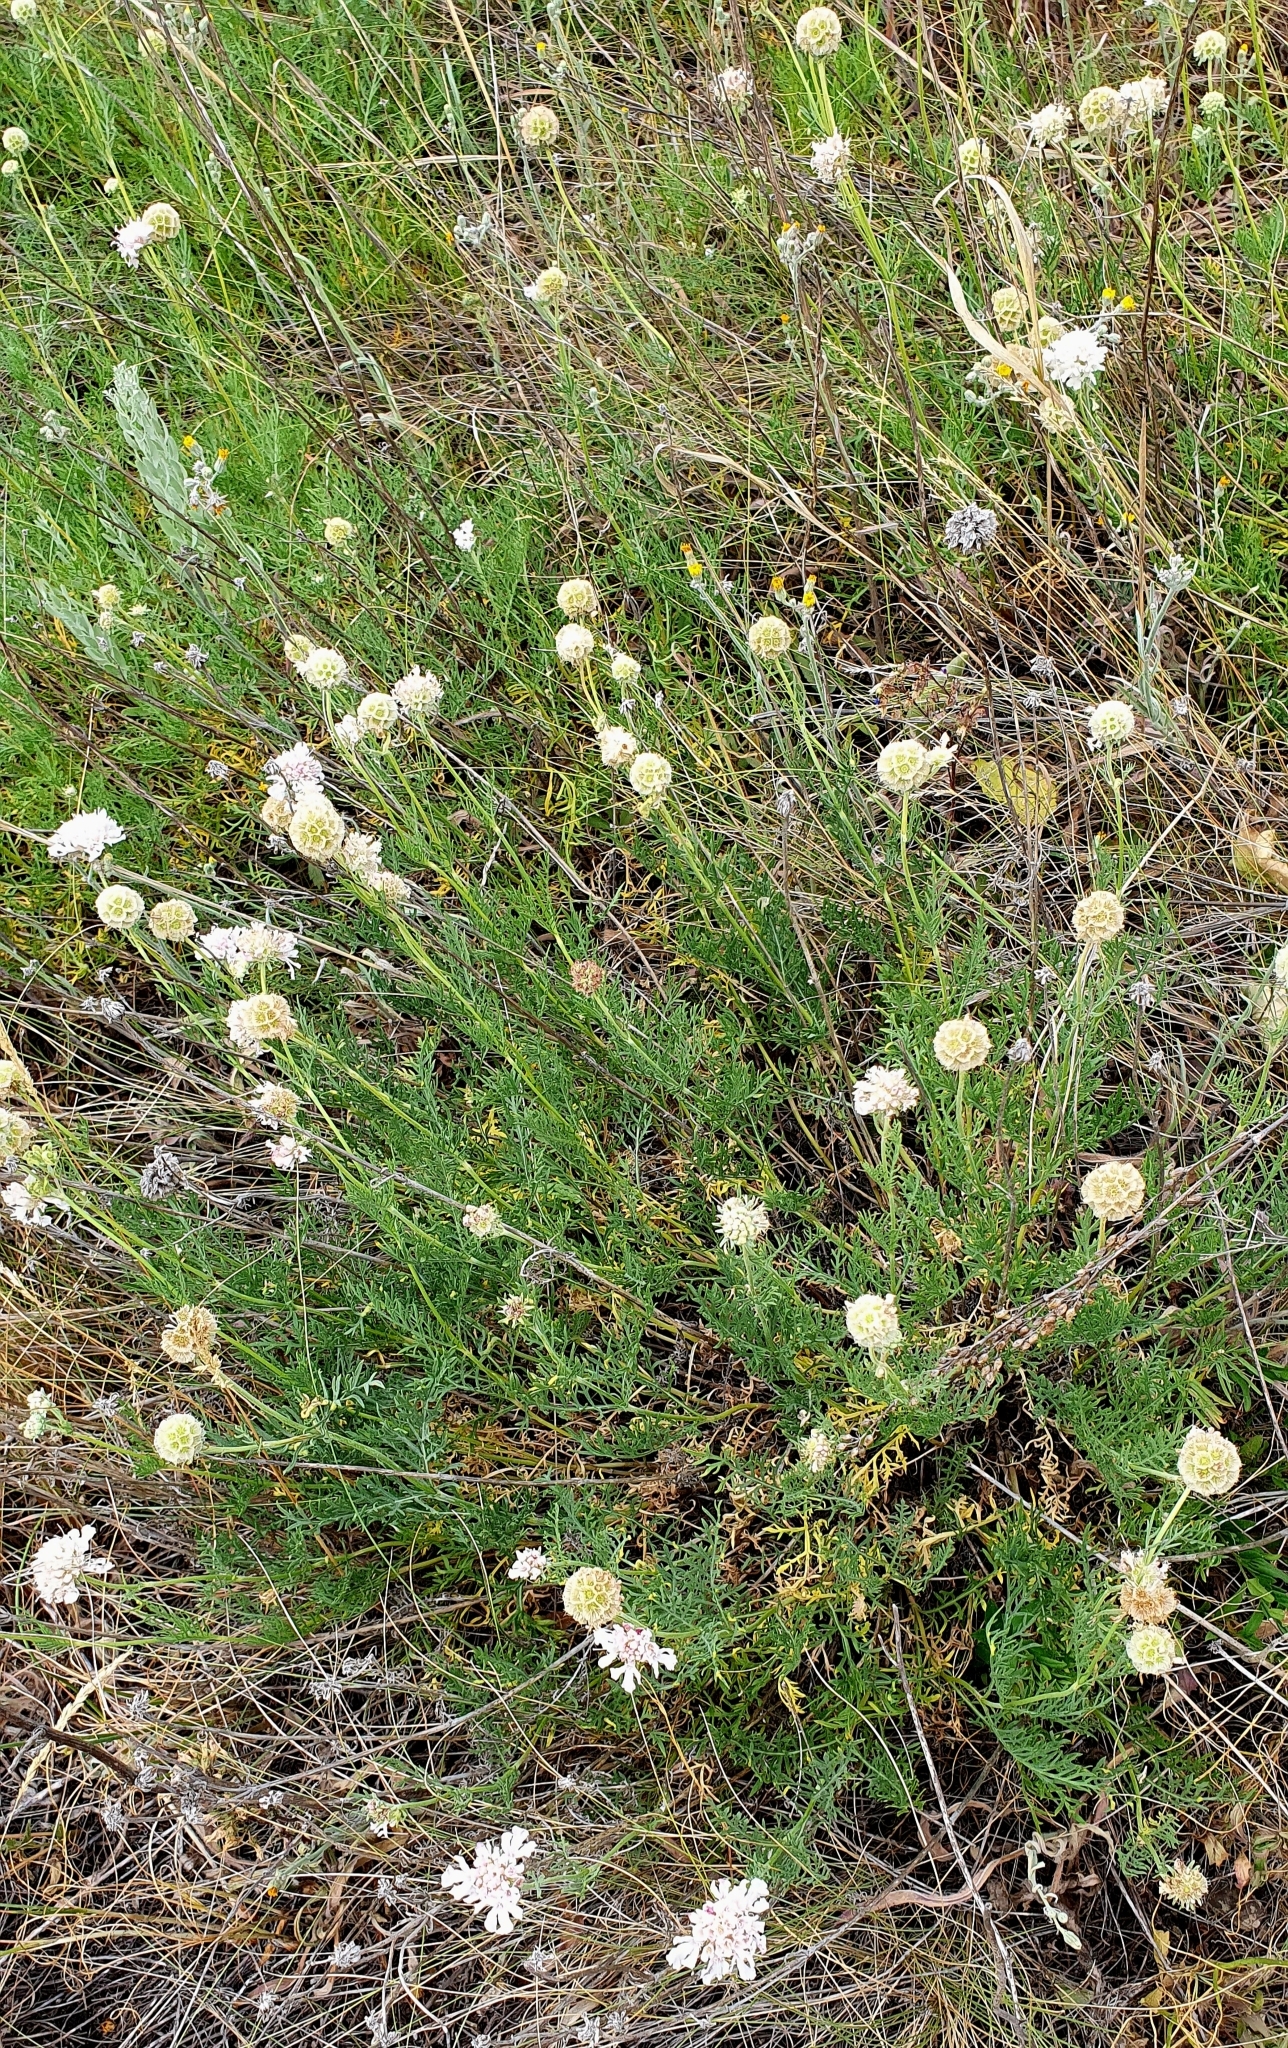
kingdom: Plantae
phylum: Tracheophyta
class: Magnoliopsida
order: Dipsacales
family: Caprifoliaceae
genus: Lomelosia
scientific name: Lomelosia isetensis
